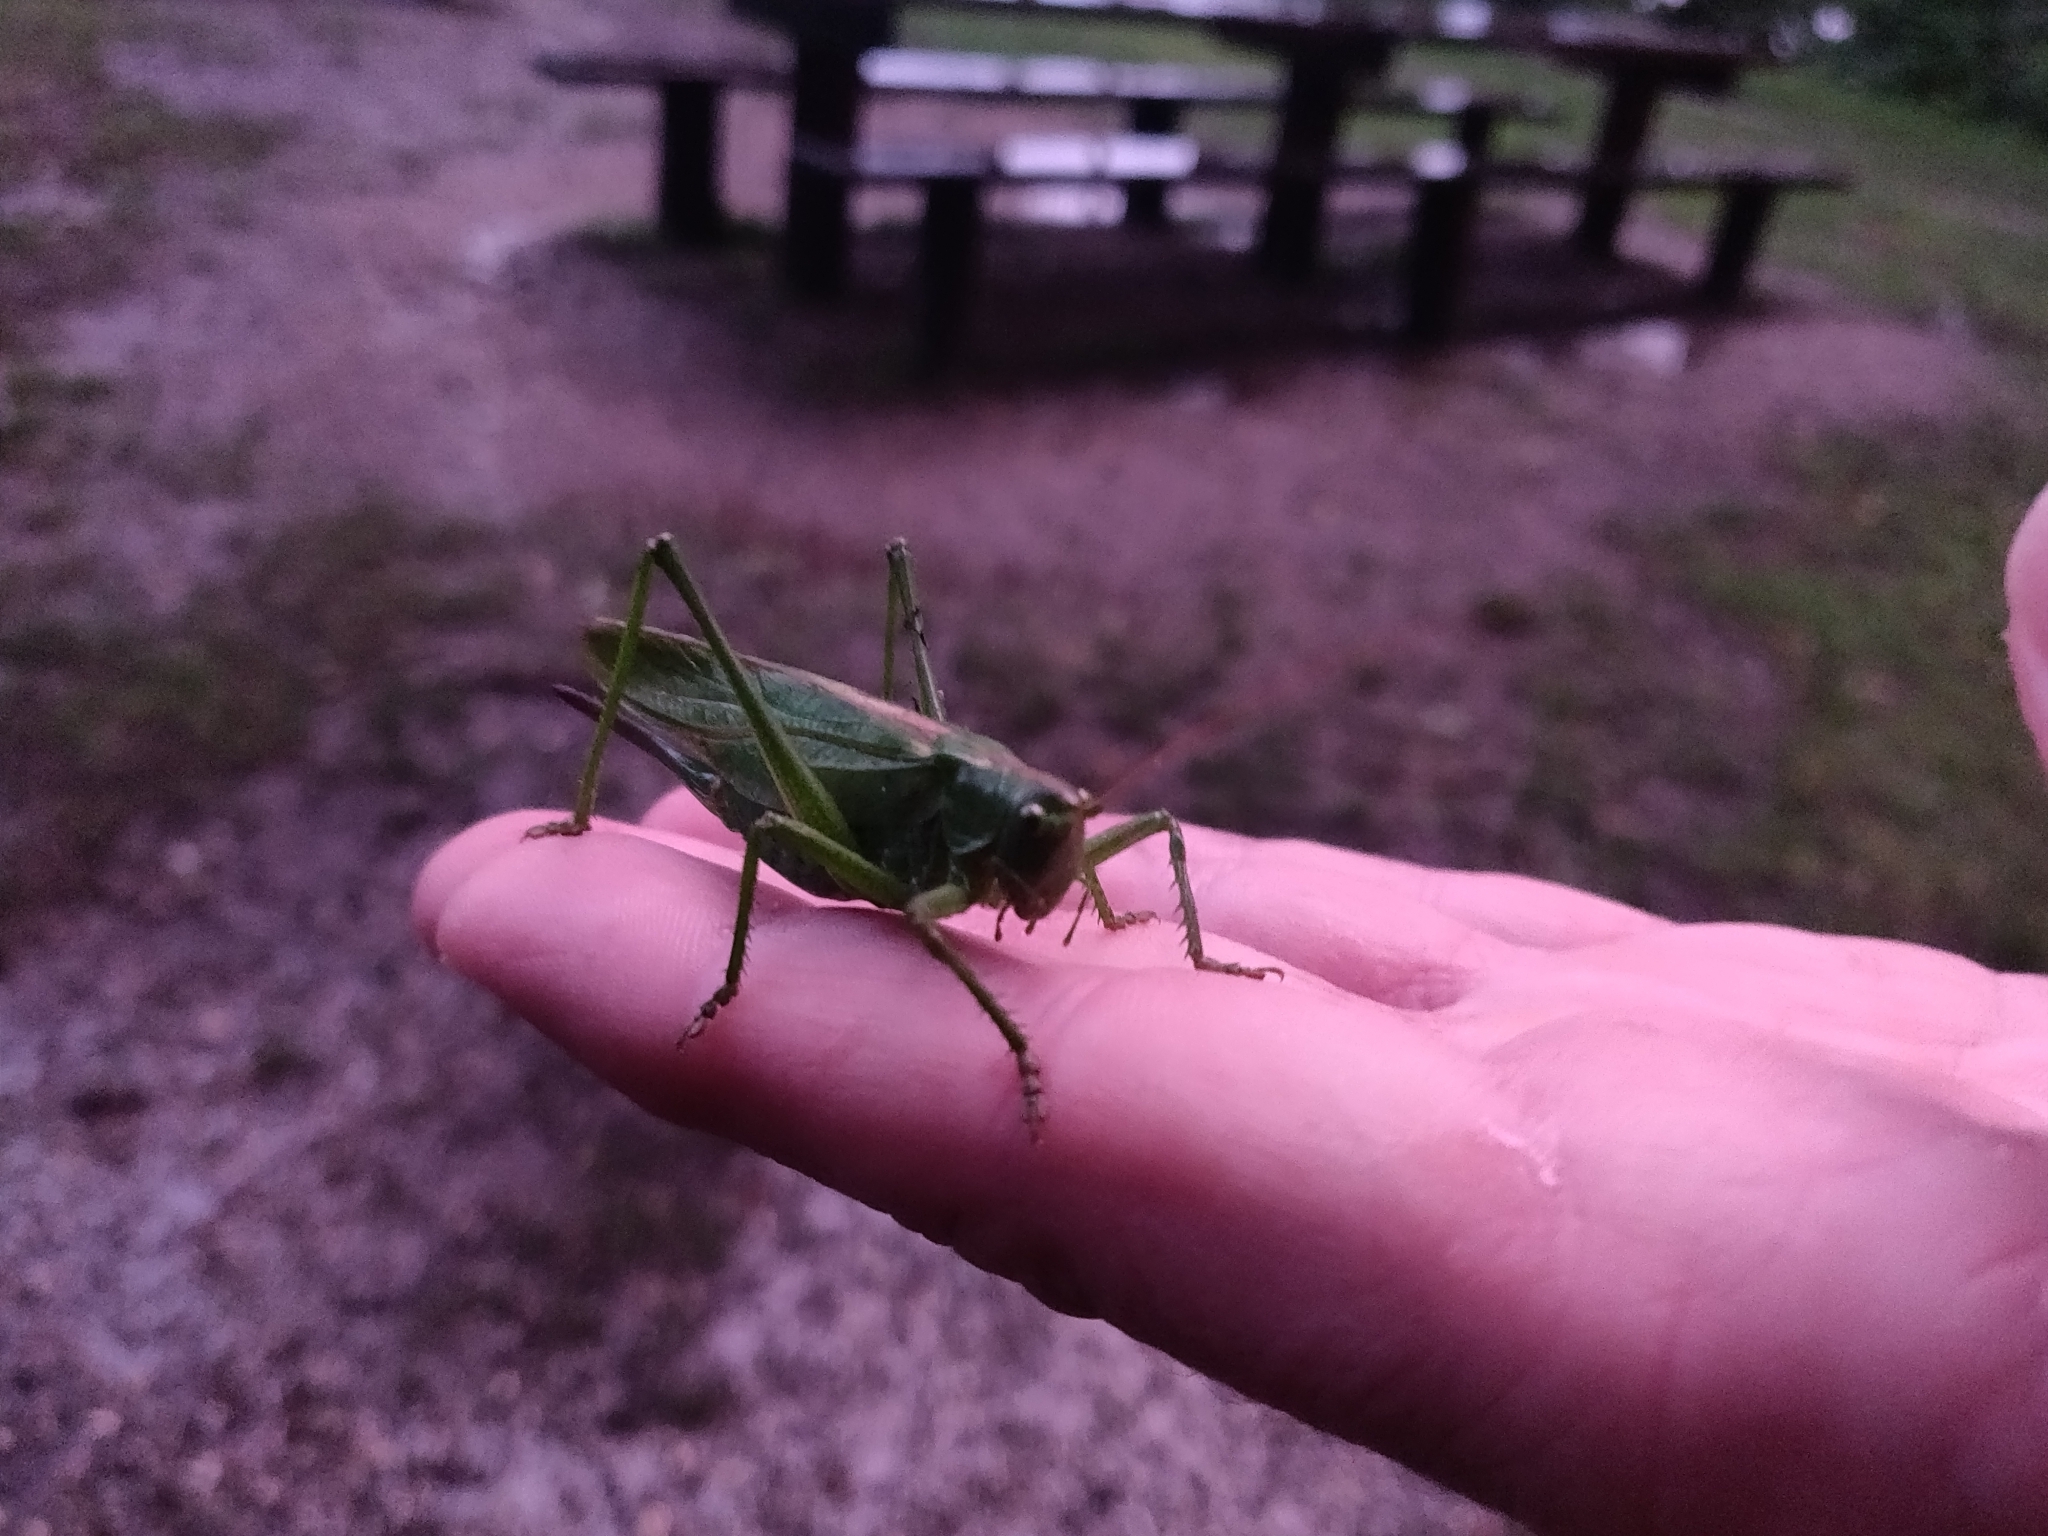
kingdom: Animalia
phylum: Arthropoda
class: Insecta
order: Orthoptera
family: Tettigoniidae
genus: Tettigonia
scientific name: Tettigonia viridissima
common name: Great green bush-cricket
